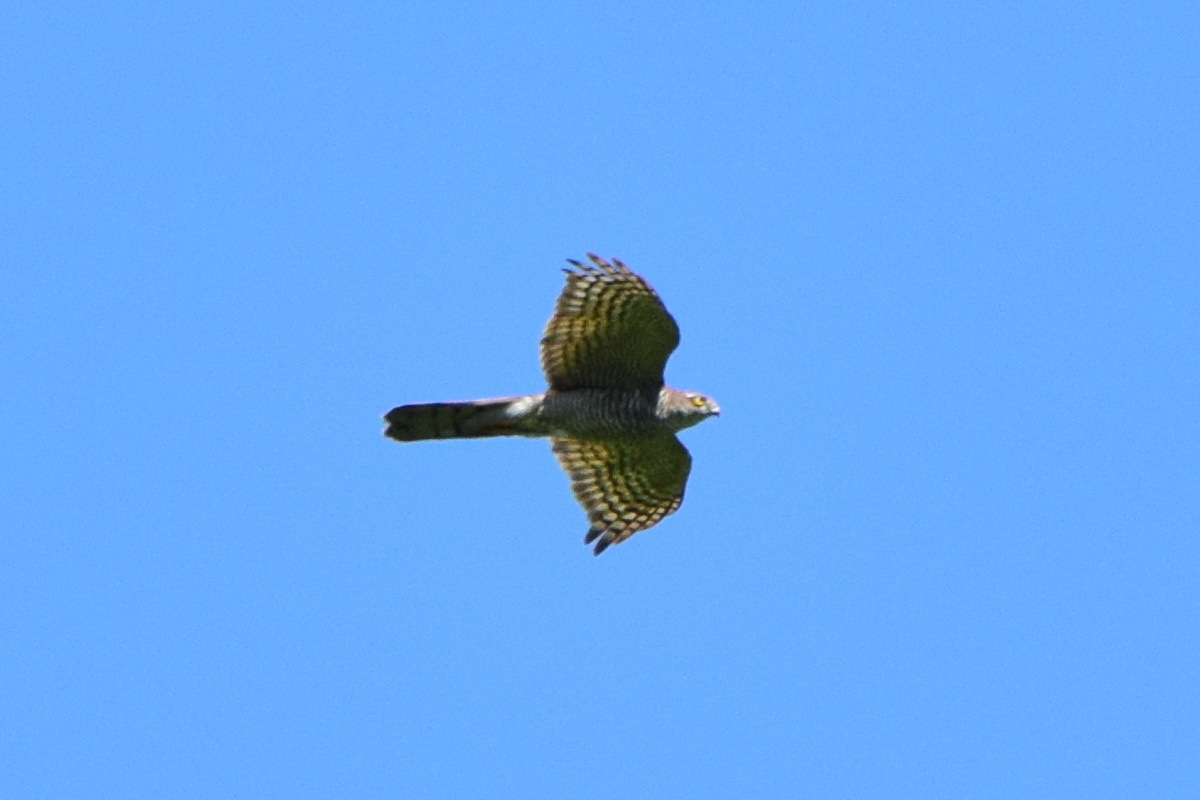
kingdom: Animalia
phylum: Chordata
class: Aves
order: Accipitriformes
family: Accipitridae
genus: Accipiter
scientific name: Accipiter nisus
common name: Eurasian sparrowhawk
